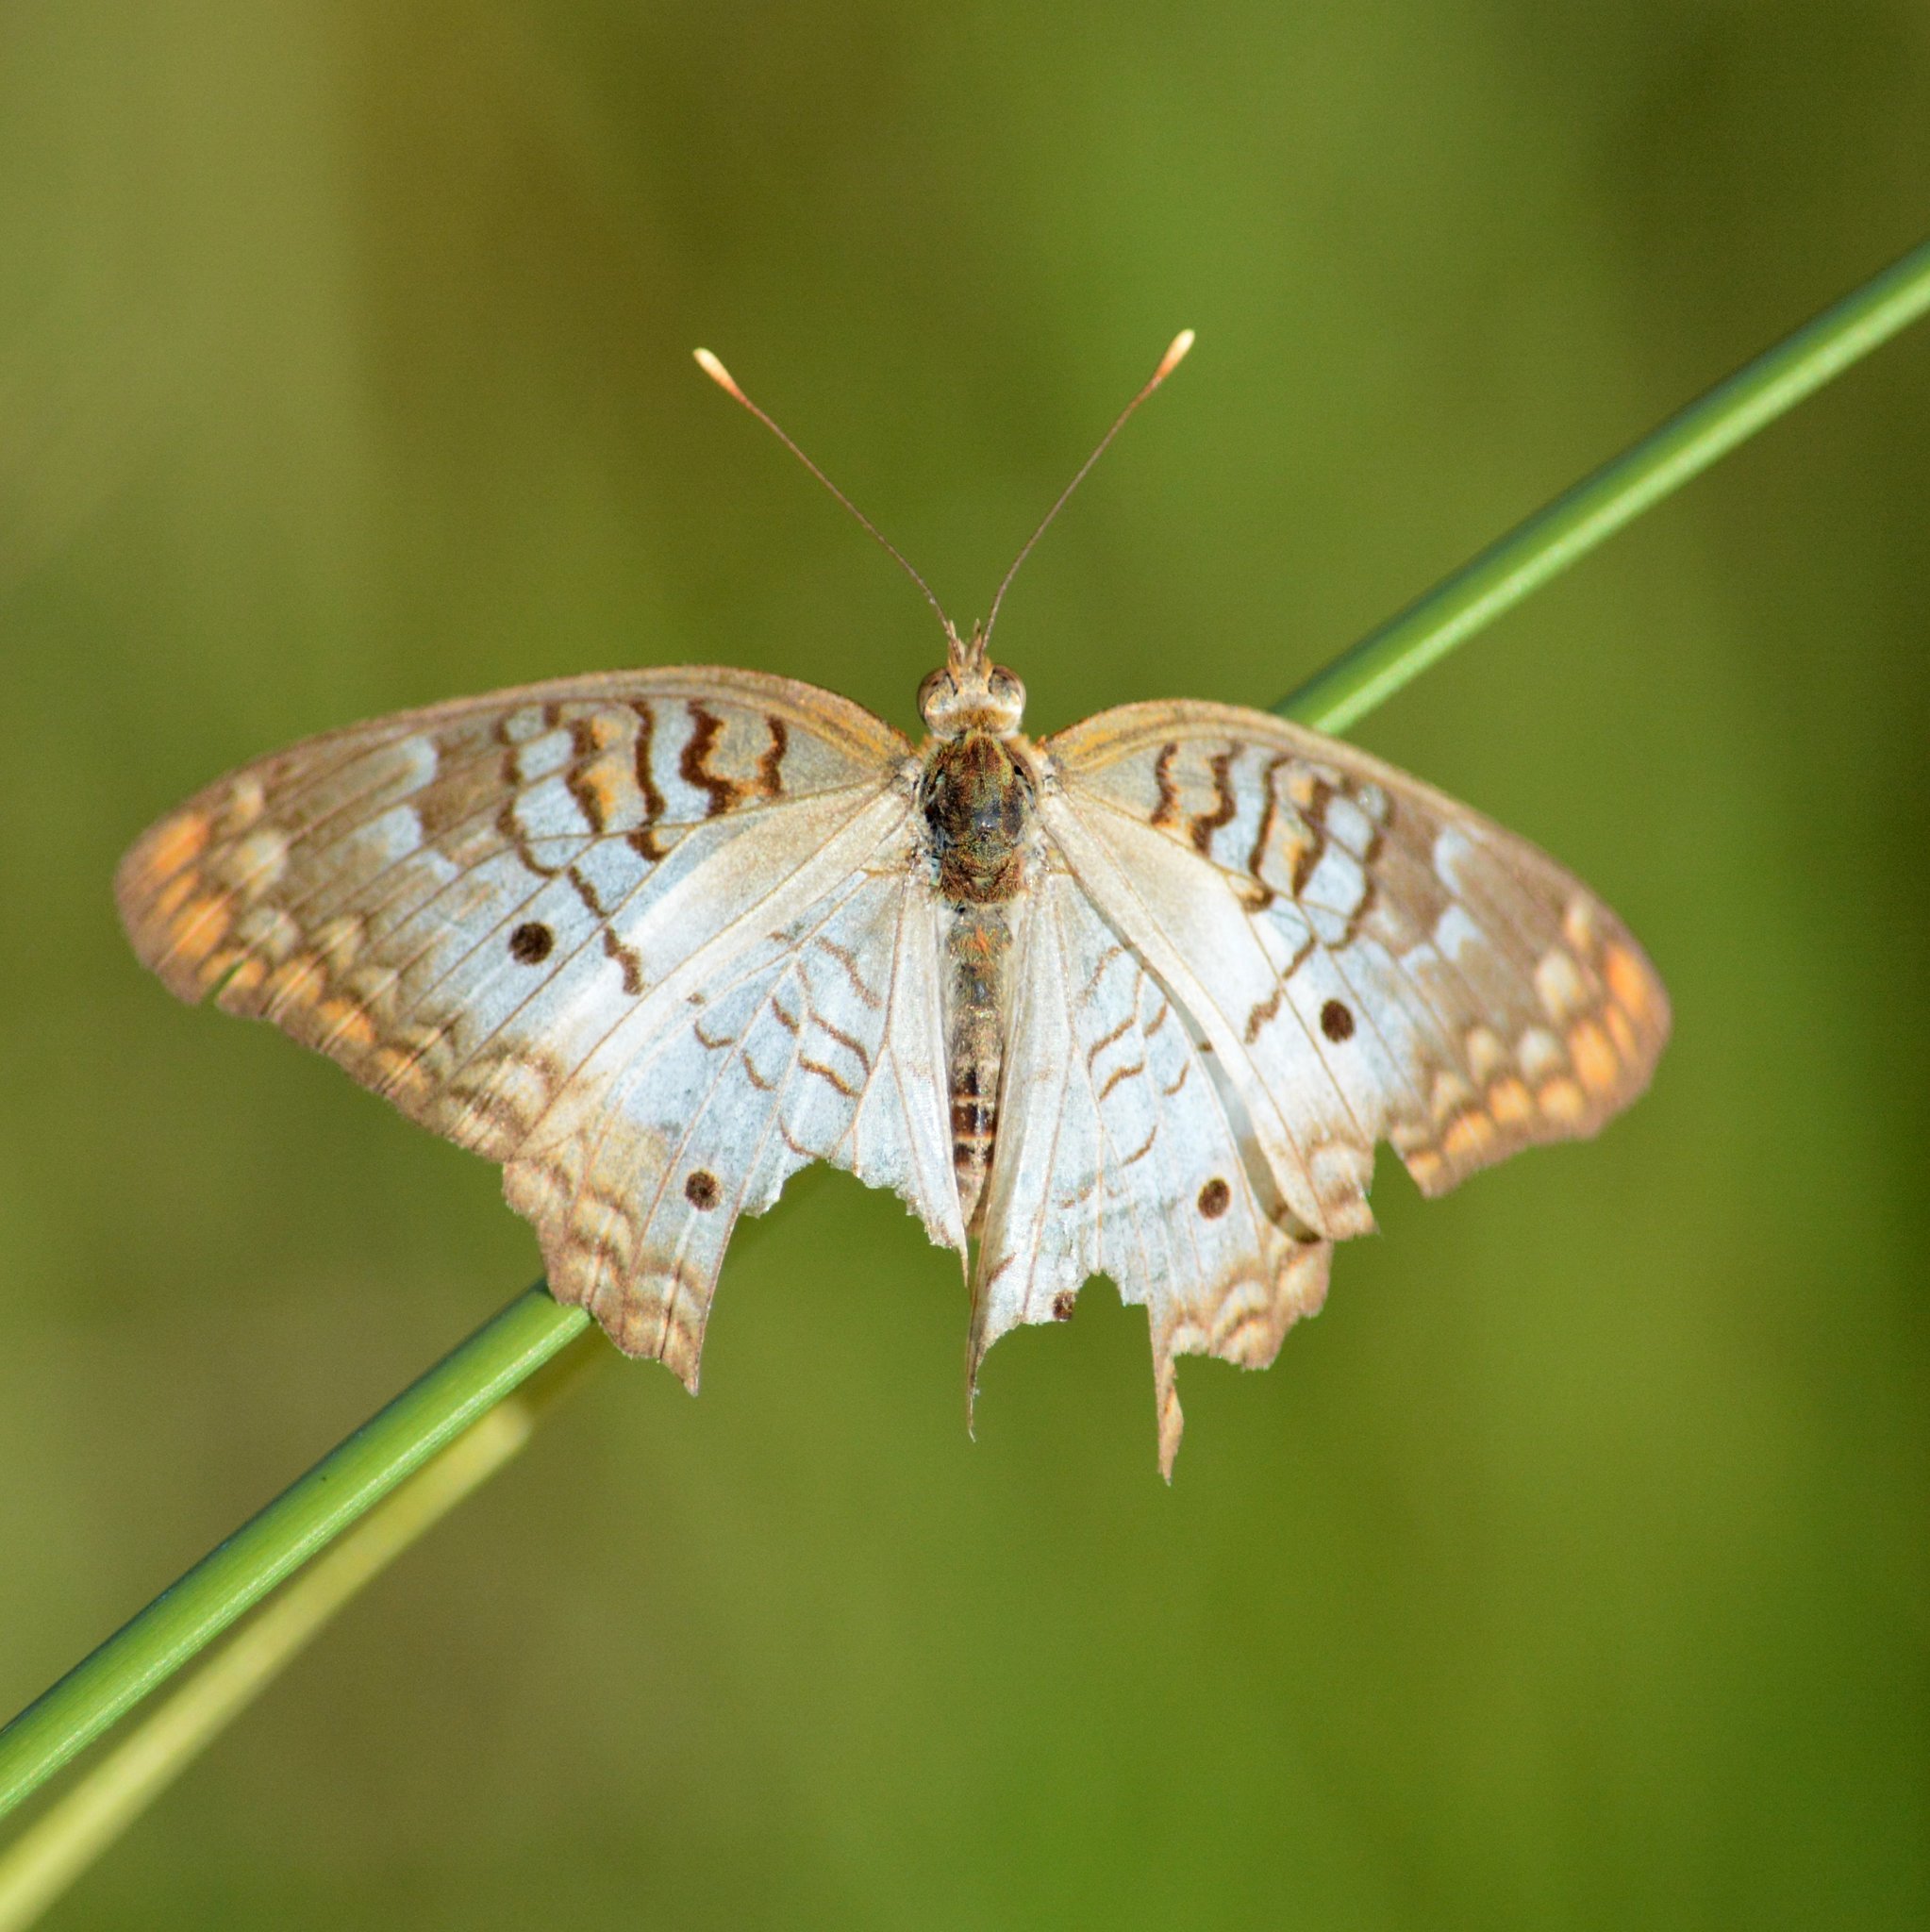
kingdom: Animalia
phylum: Arthropoda
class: Insecta
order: Lepidoptera
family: Nymphalidae
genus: Anartia
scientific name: Anartia jatrophae
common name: White peacock
